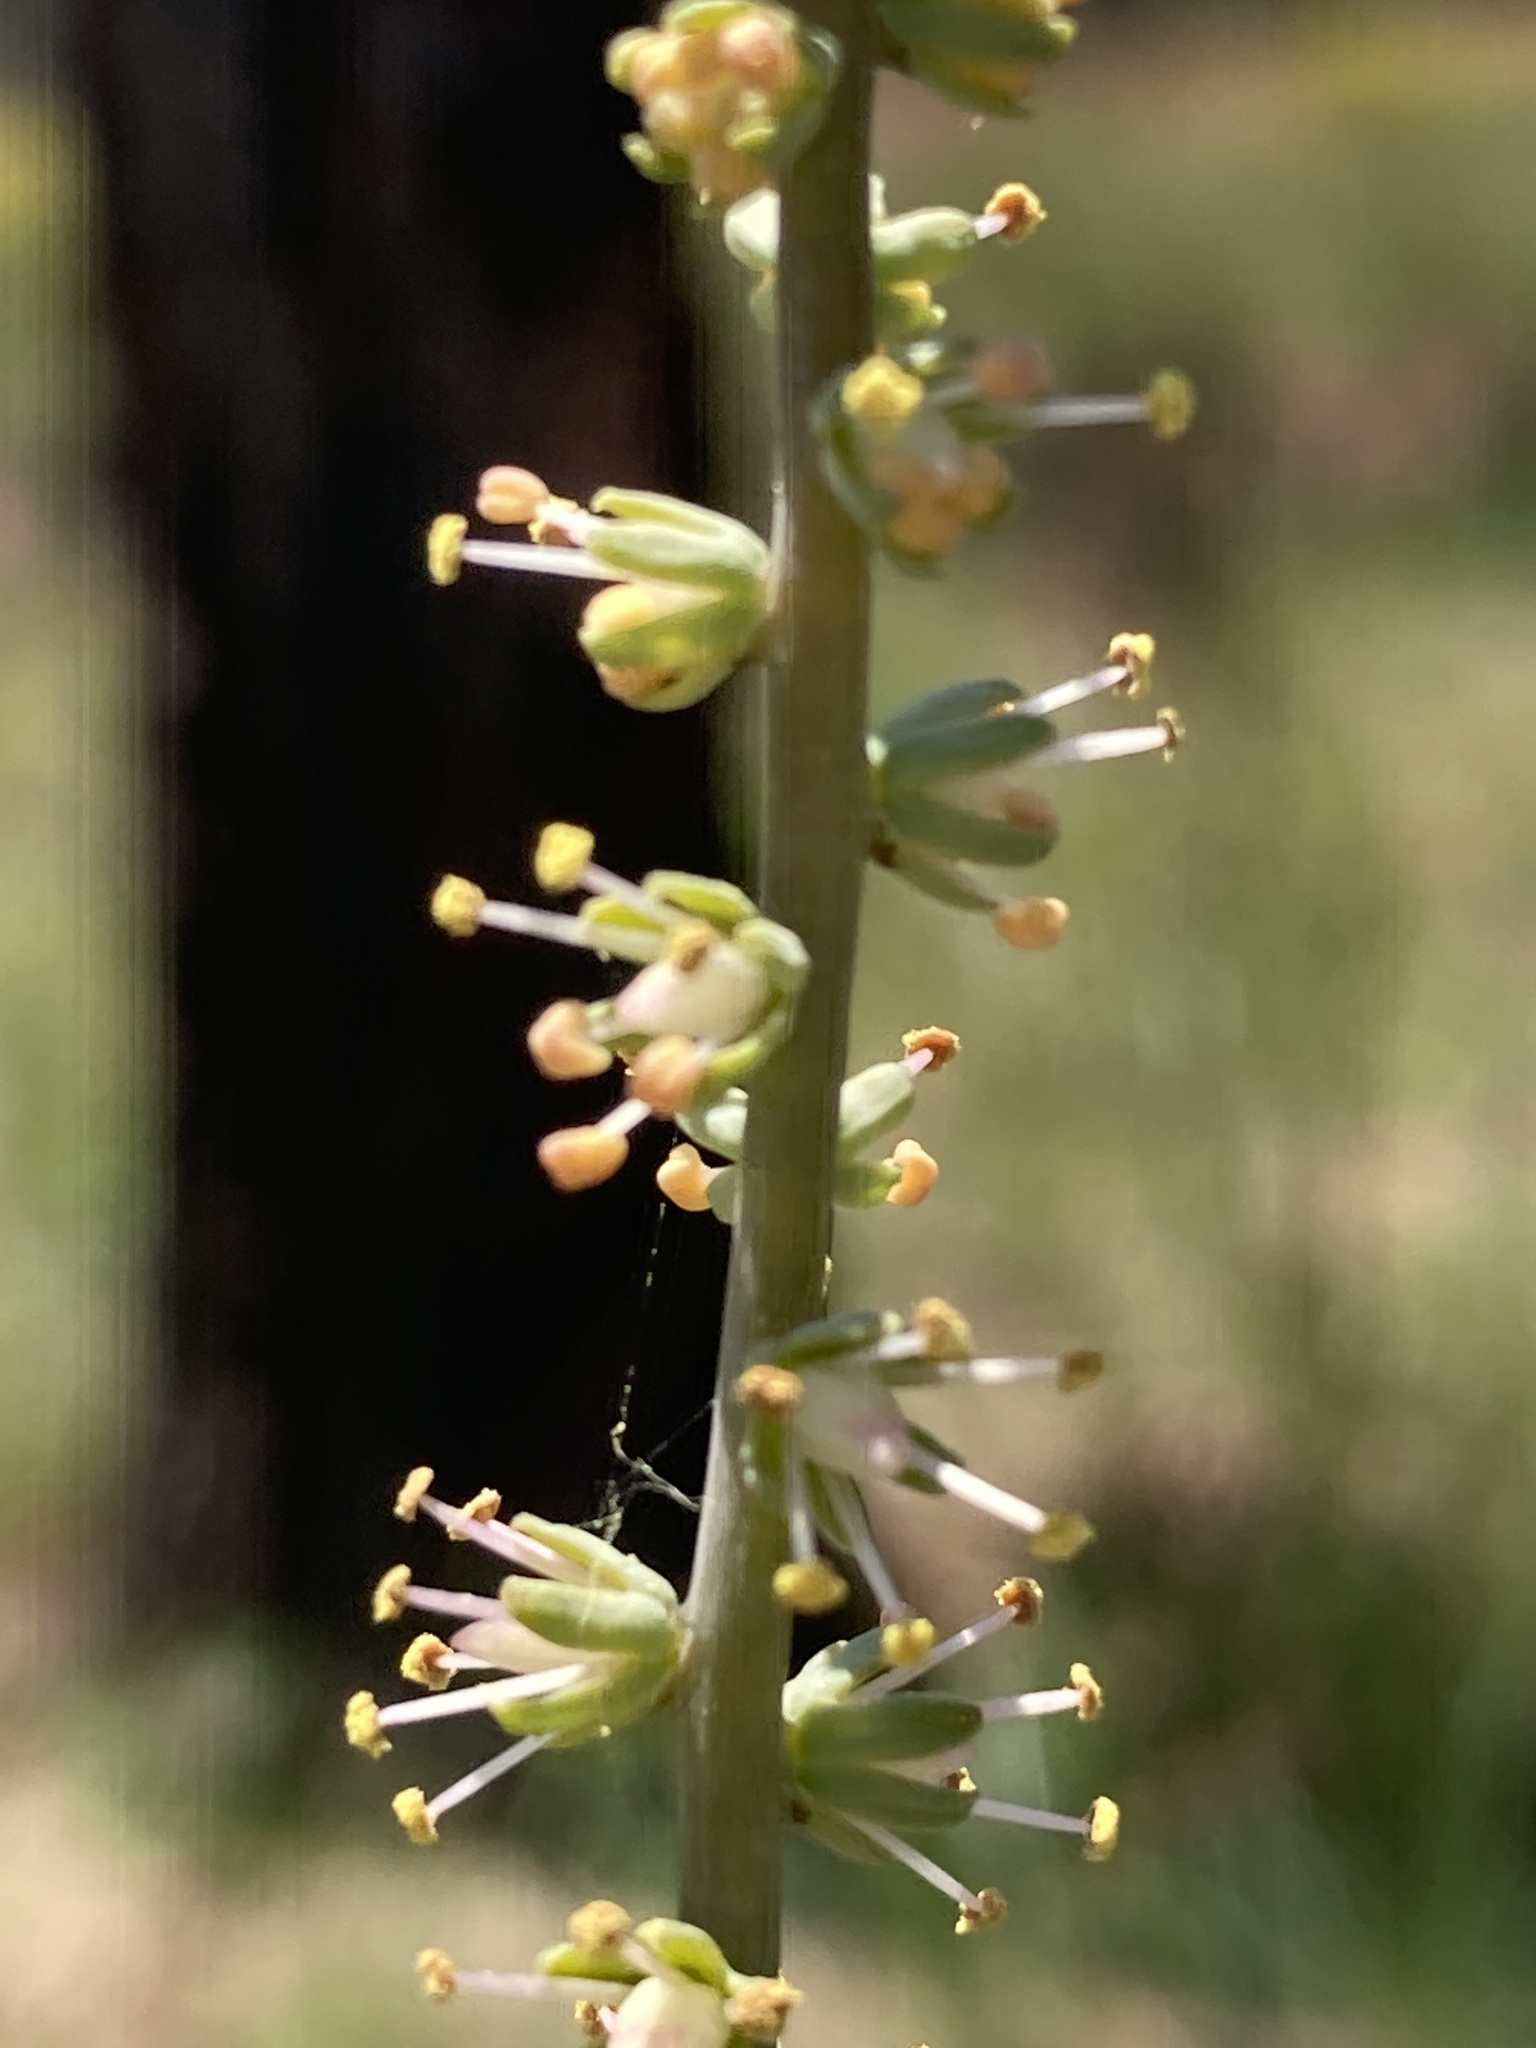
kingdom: Plantae
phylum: Tracheophyta
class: Liliopsida
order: Liliales
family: Melanthiaceae
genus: Schoenocaulon
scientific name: Schoenocaulon dubium
